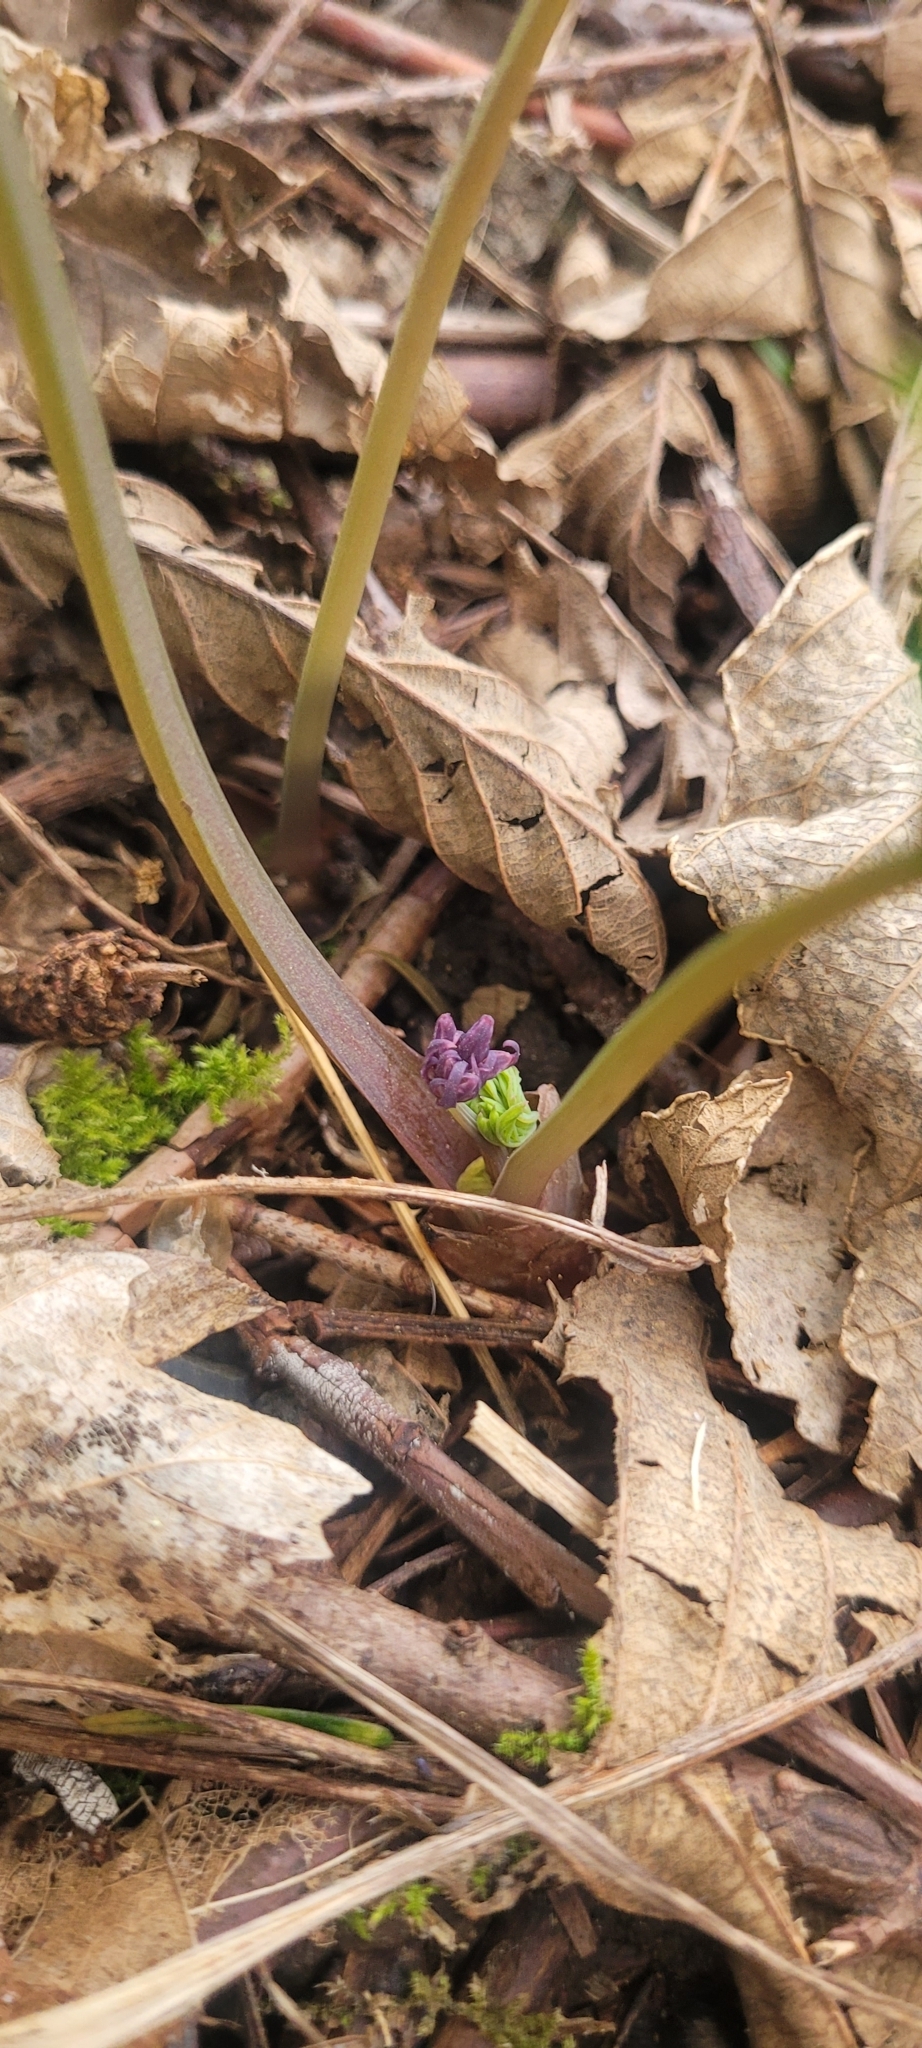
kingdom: Plantae
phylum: Tracheophyta
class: Magnoliopsida
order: Ranunculales
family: Papaveraceae
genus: Dicentra
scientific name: Dicentra formosa
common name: Bleeding-heart
